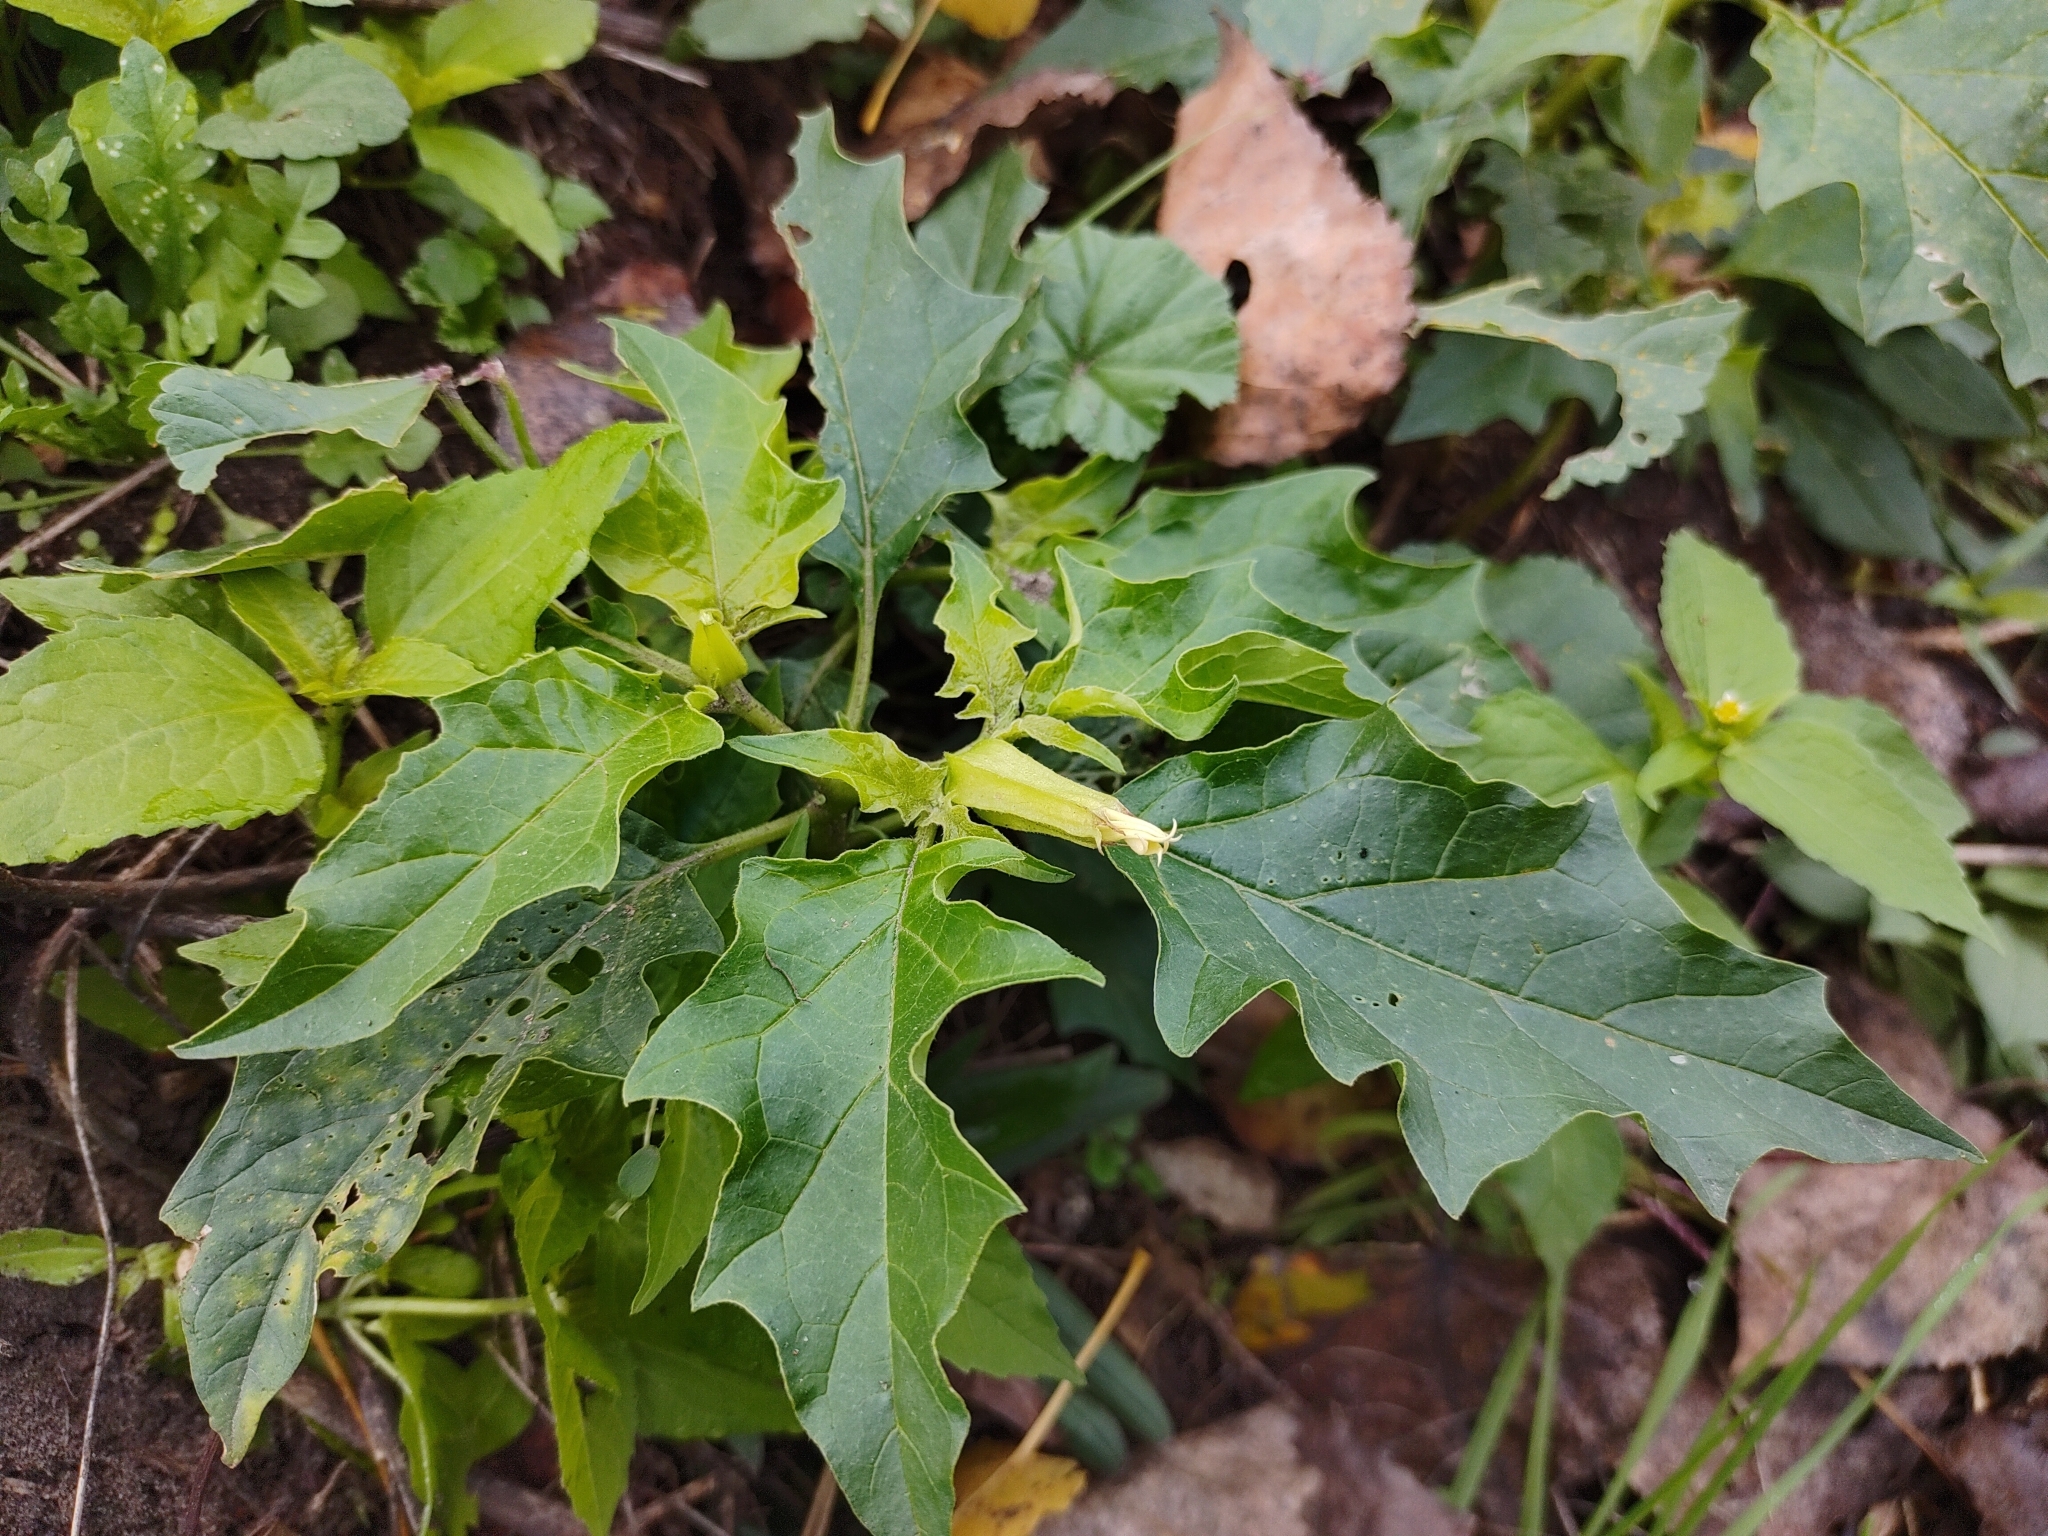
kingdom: Plantae
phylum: Tracheophyta
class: Magnoliopsida
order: Solanales
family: Solanaceae
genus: Datura
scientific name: Datura stramonium
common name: Thorn-apple
